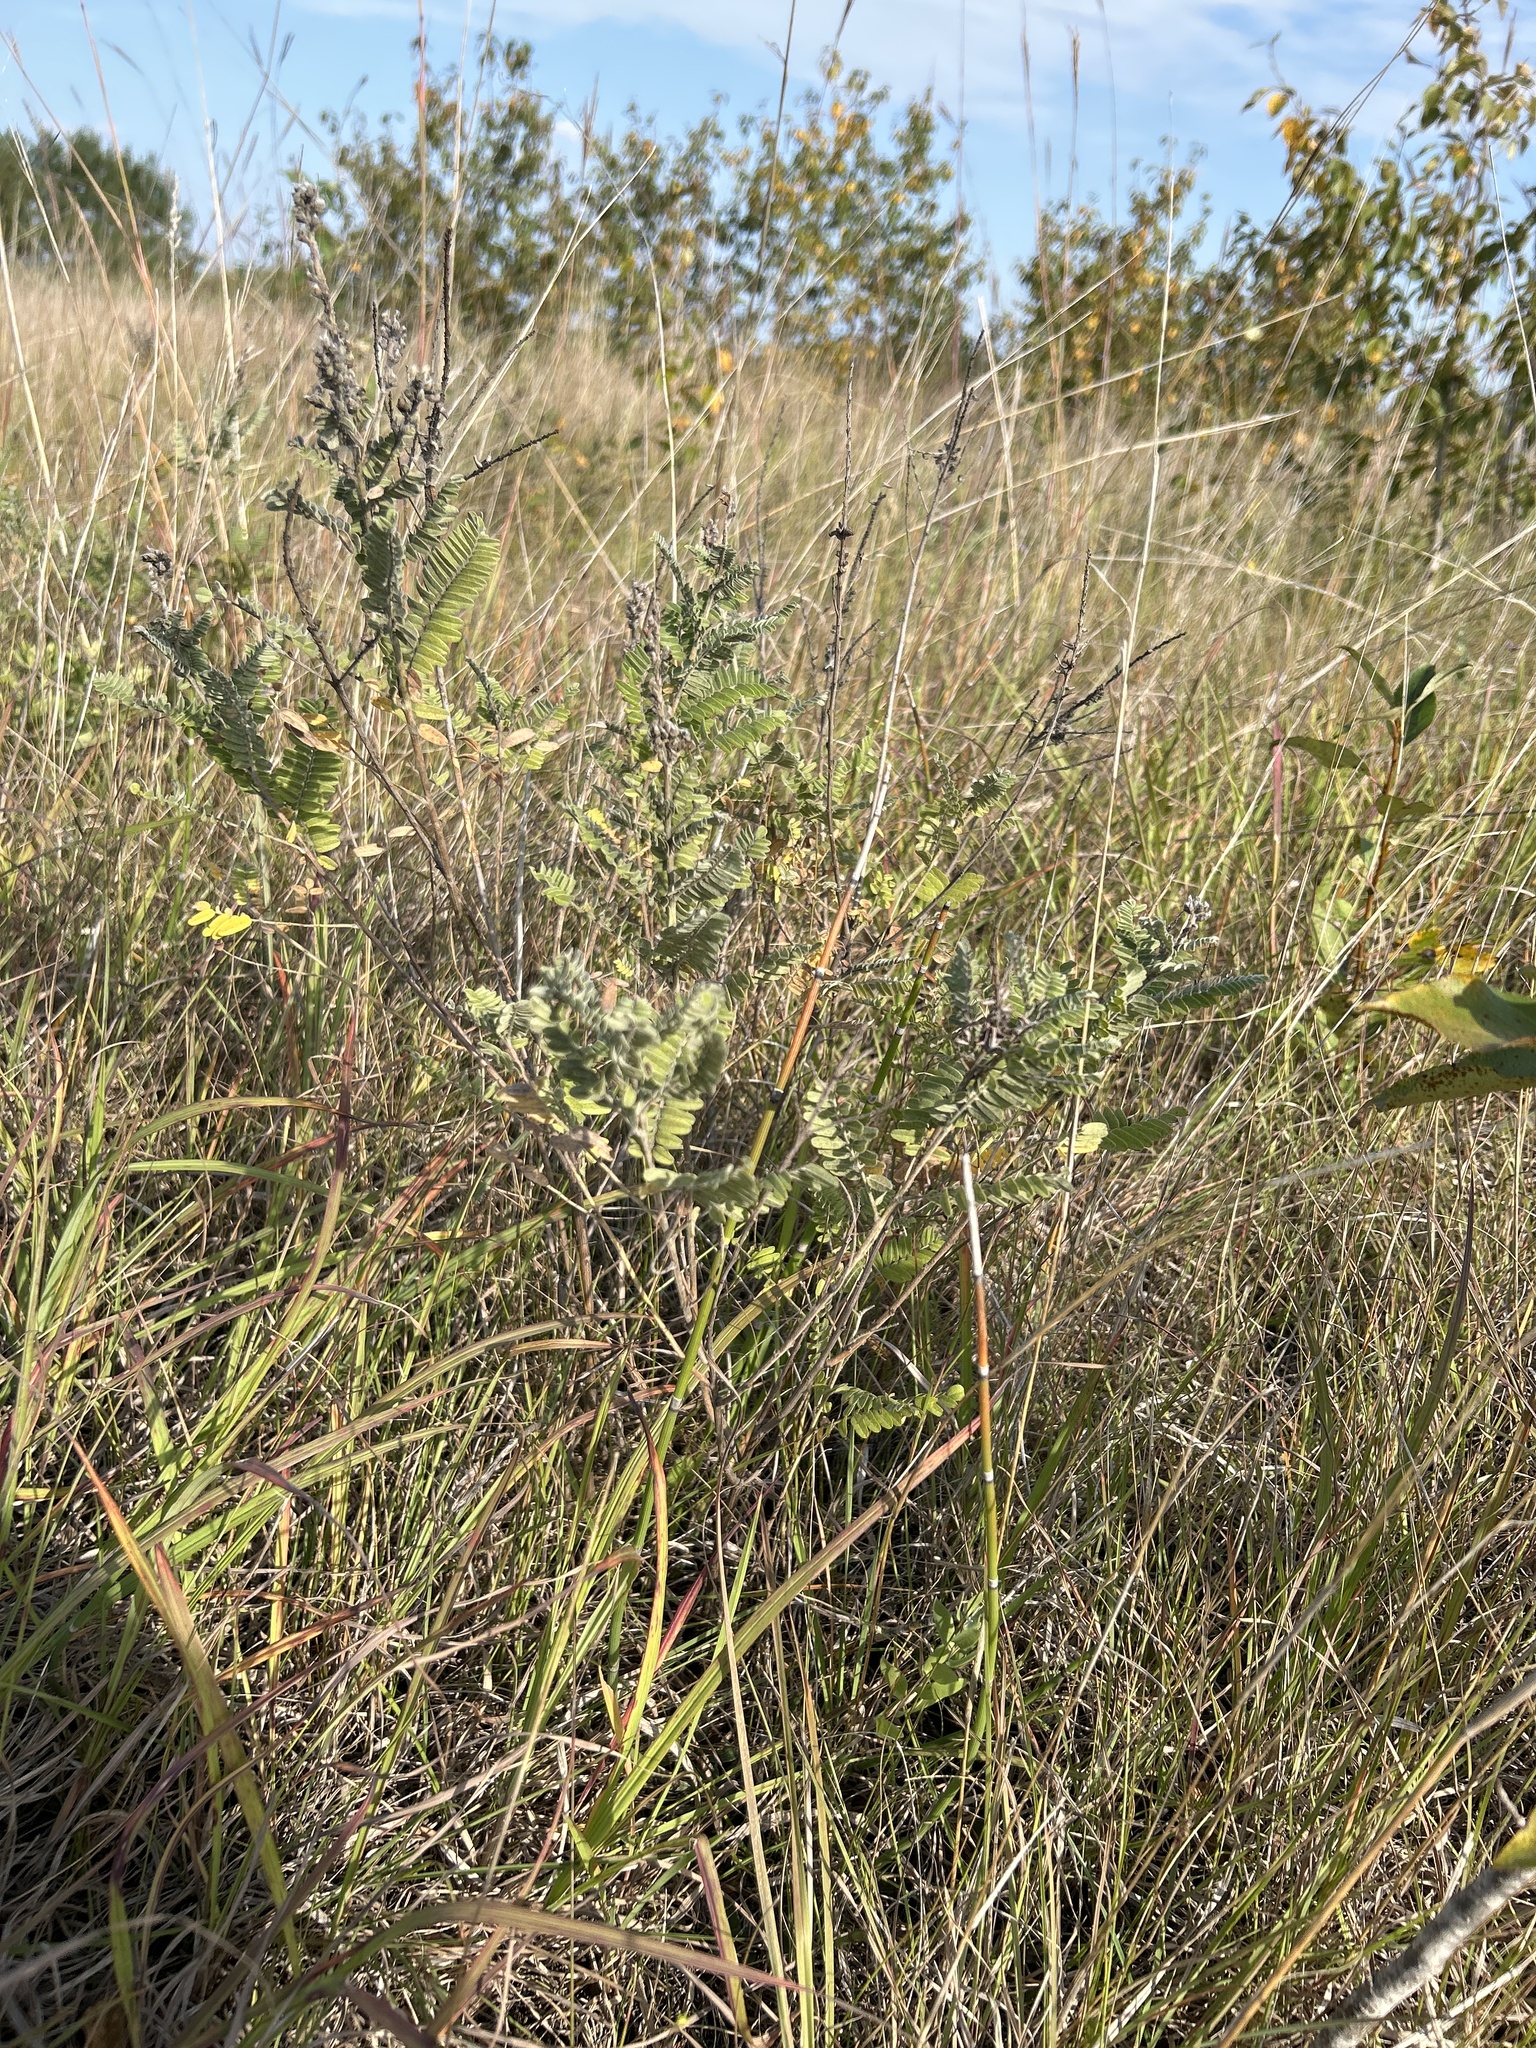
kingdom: Plantae
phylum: Tracheophyta
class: Magnoliopsida
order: Fabales
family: Fabaceae
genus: Amorpha
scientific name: Amorpha canescens
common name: Leadplant
